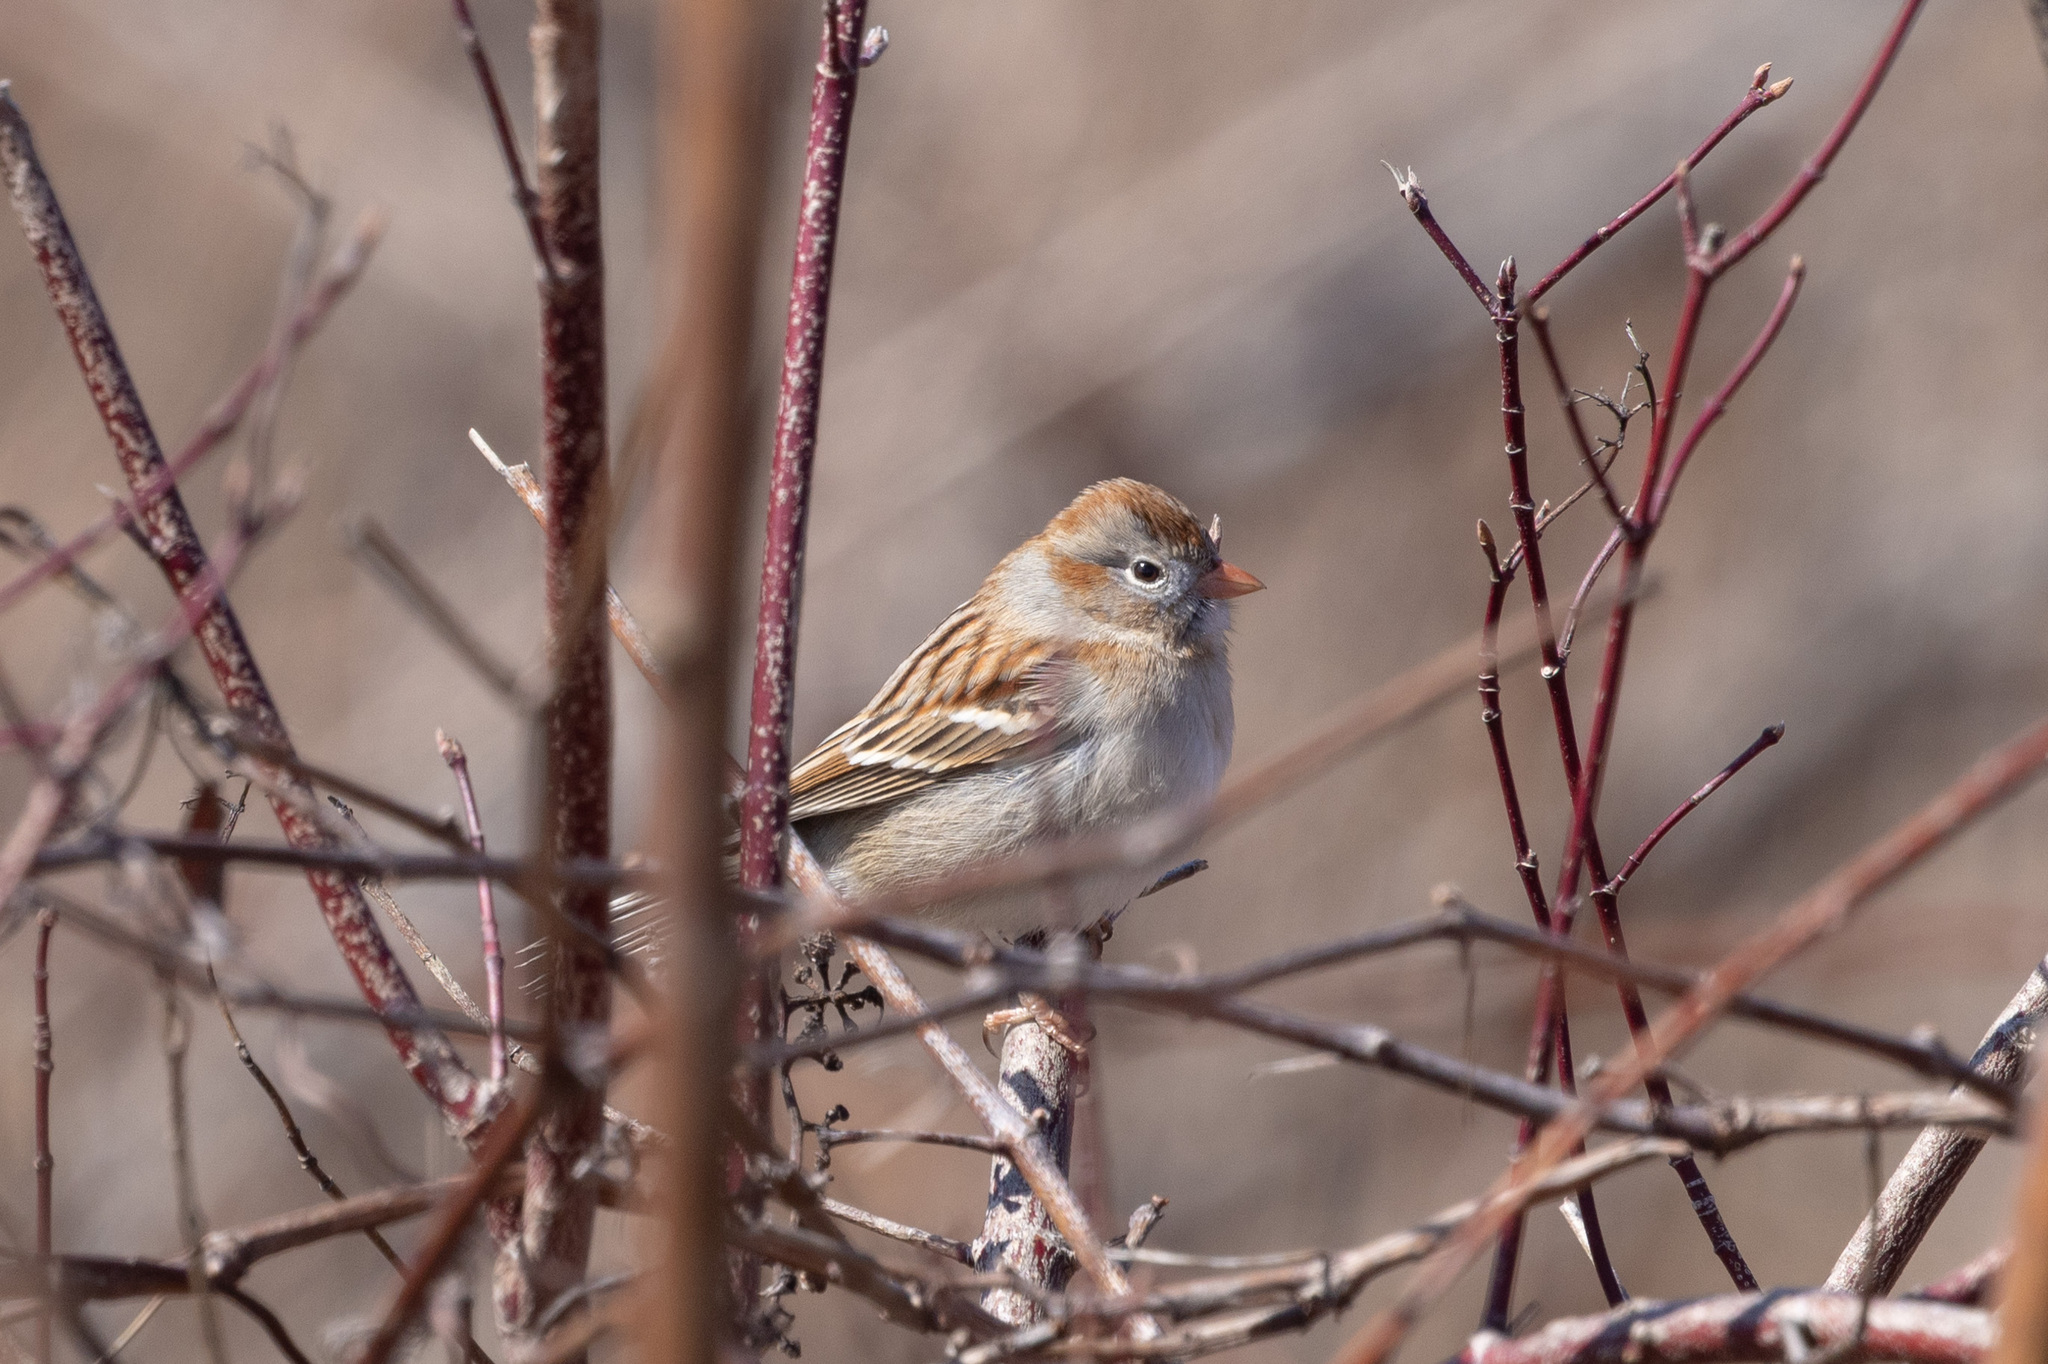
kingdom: Animalia
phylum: Chordata
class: Aves
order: Passeriformes
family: Passerellidae
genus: Spizella
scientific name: Spizella pusilla
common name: Field sparrow
